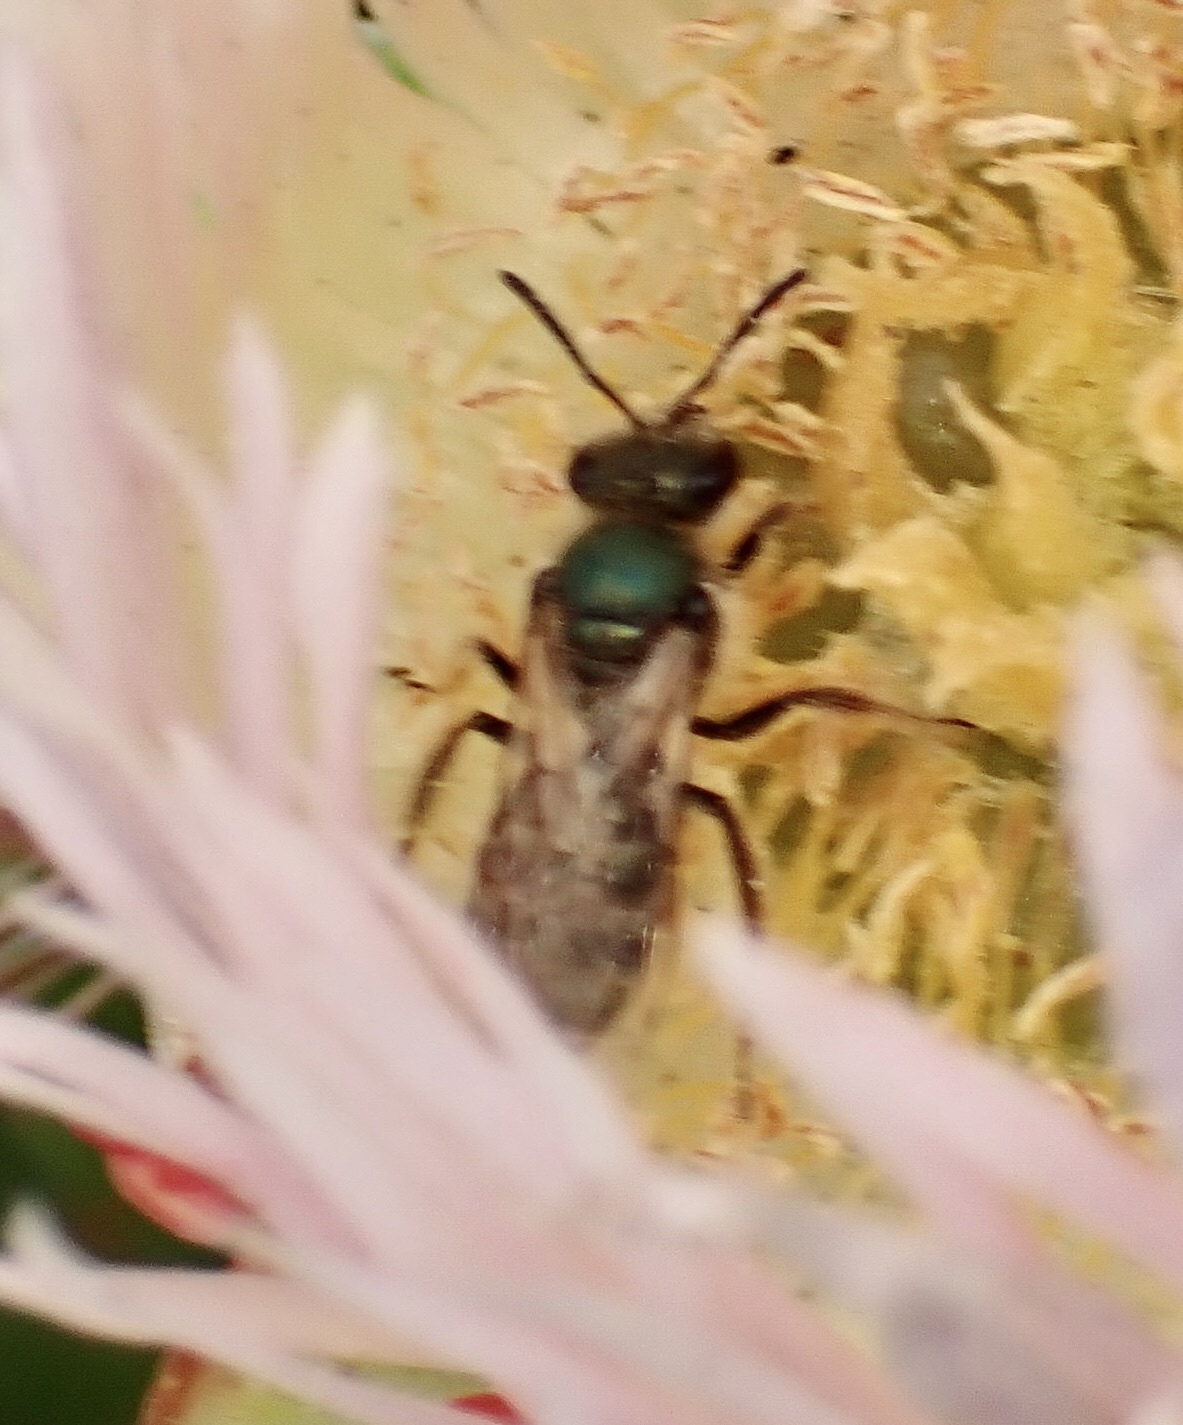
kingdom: Animalia
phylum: Arthropoda
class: Insecta
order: Hymenoptera
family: Halictidae
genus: Lasioglossum
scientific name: Lasioglossum pavonotum
